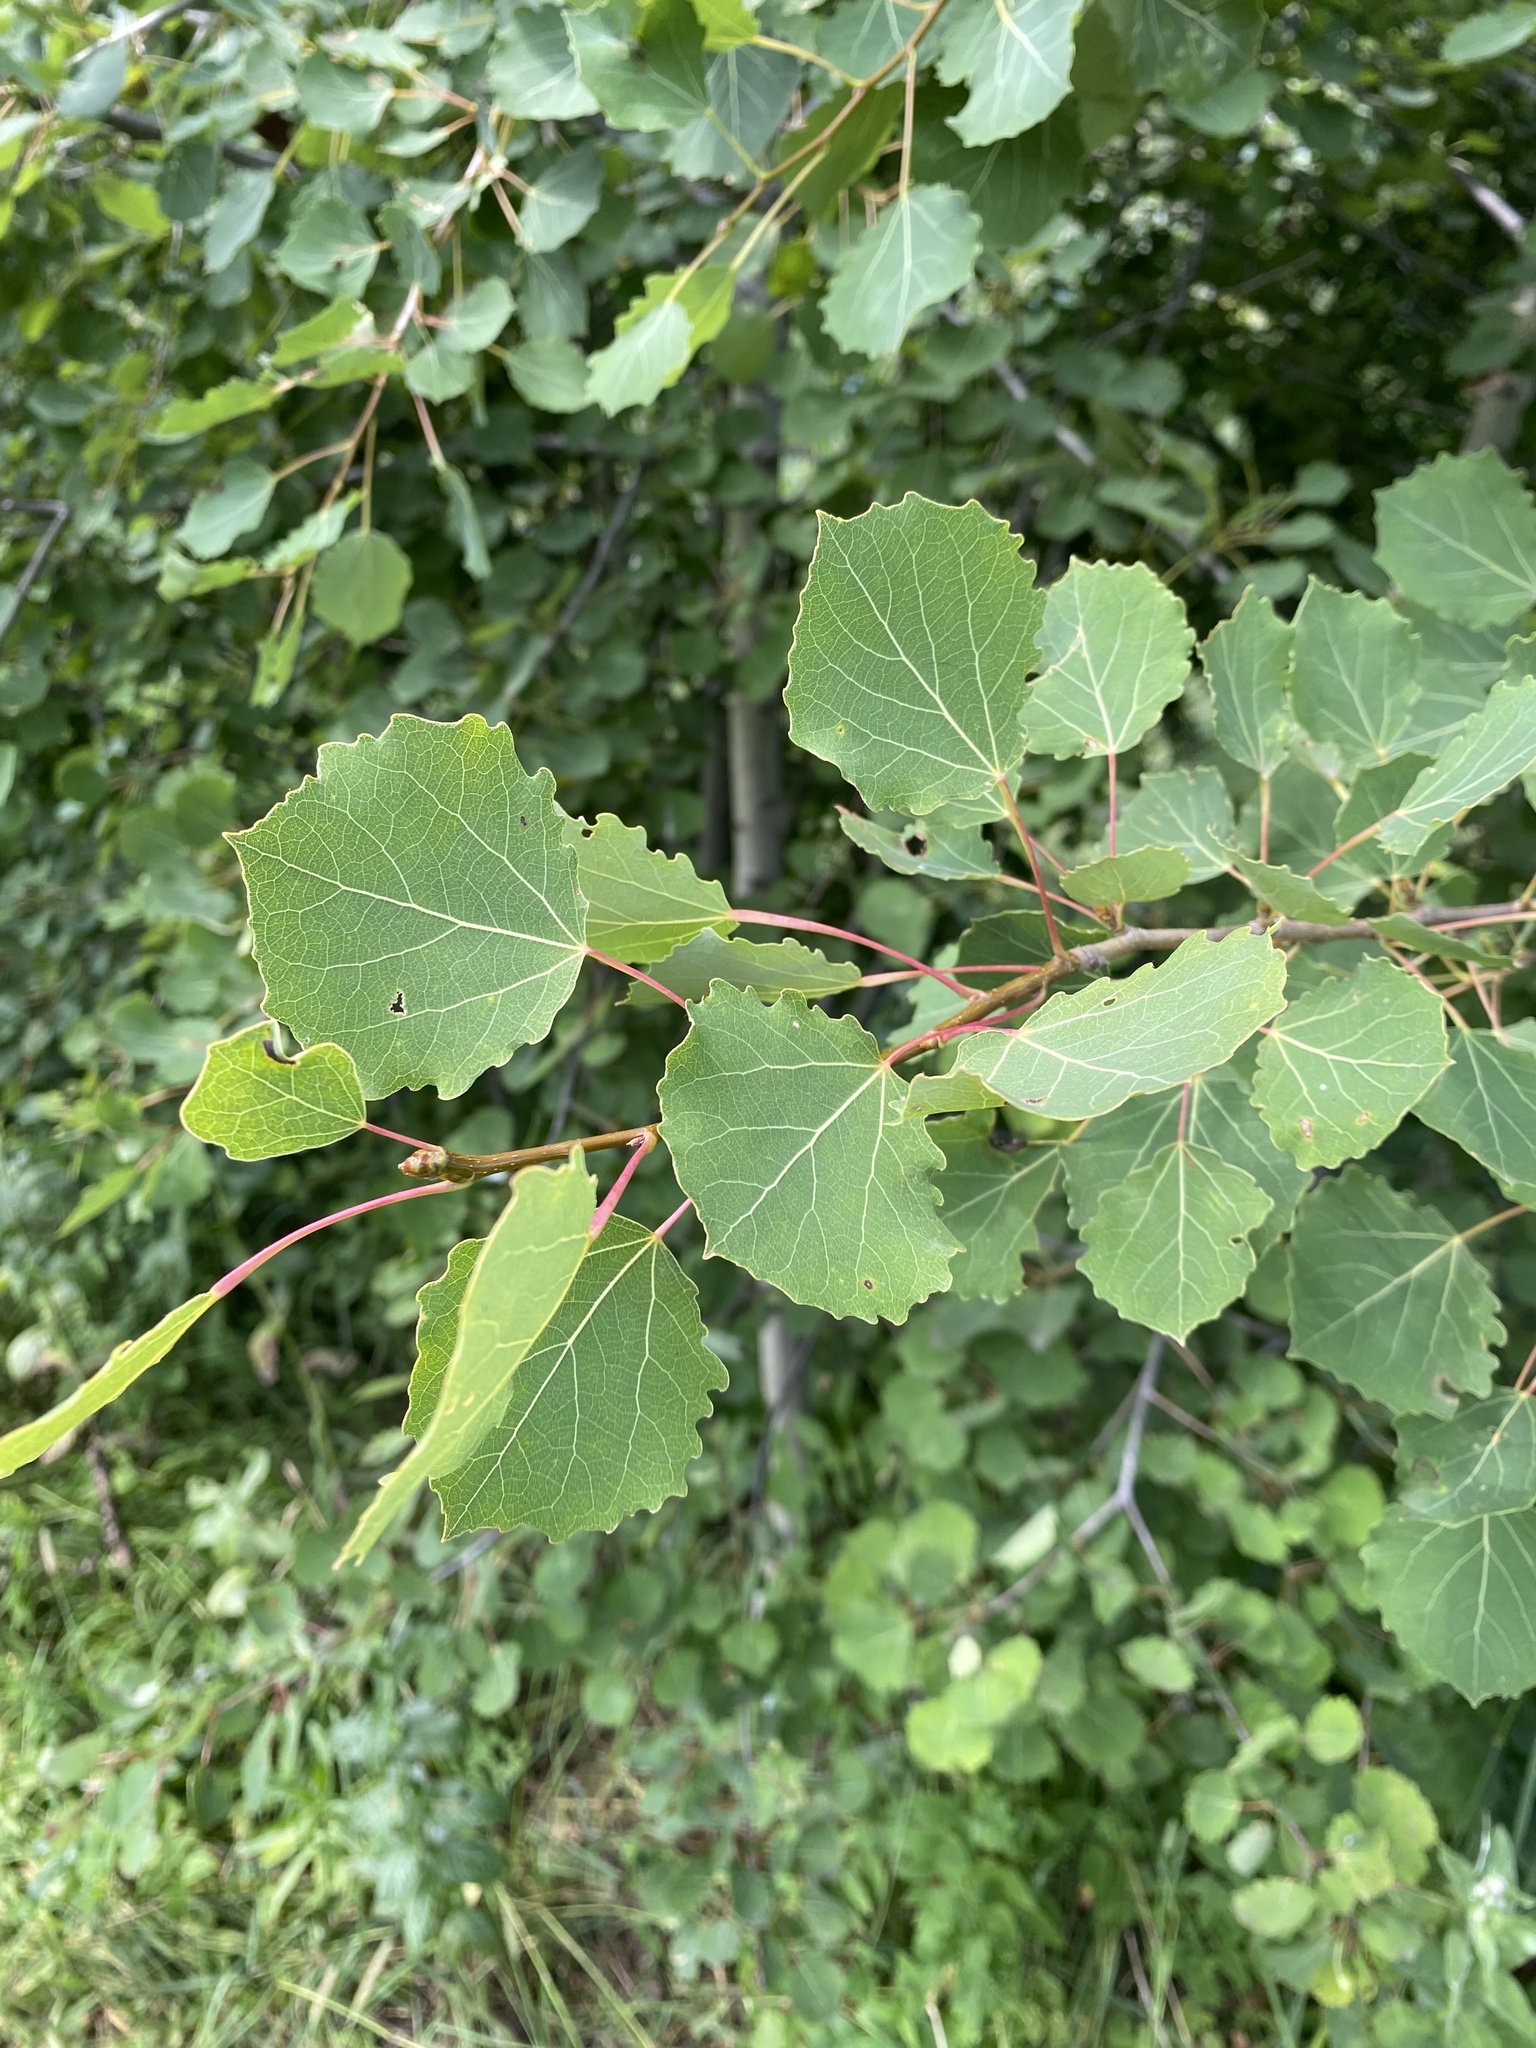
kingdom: Plantae
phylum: Tracheophyta
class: Magnoliopsida
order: Malpighiales
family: Salicaceae
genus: Populus
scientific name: Populus tremula
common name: European aspen
